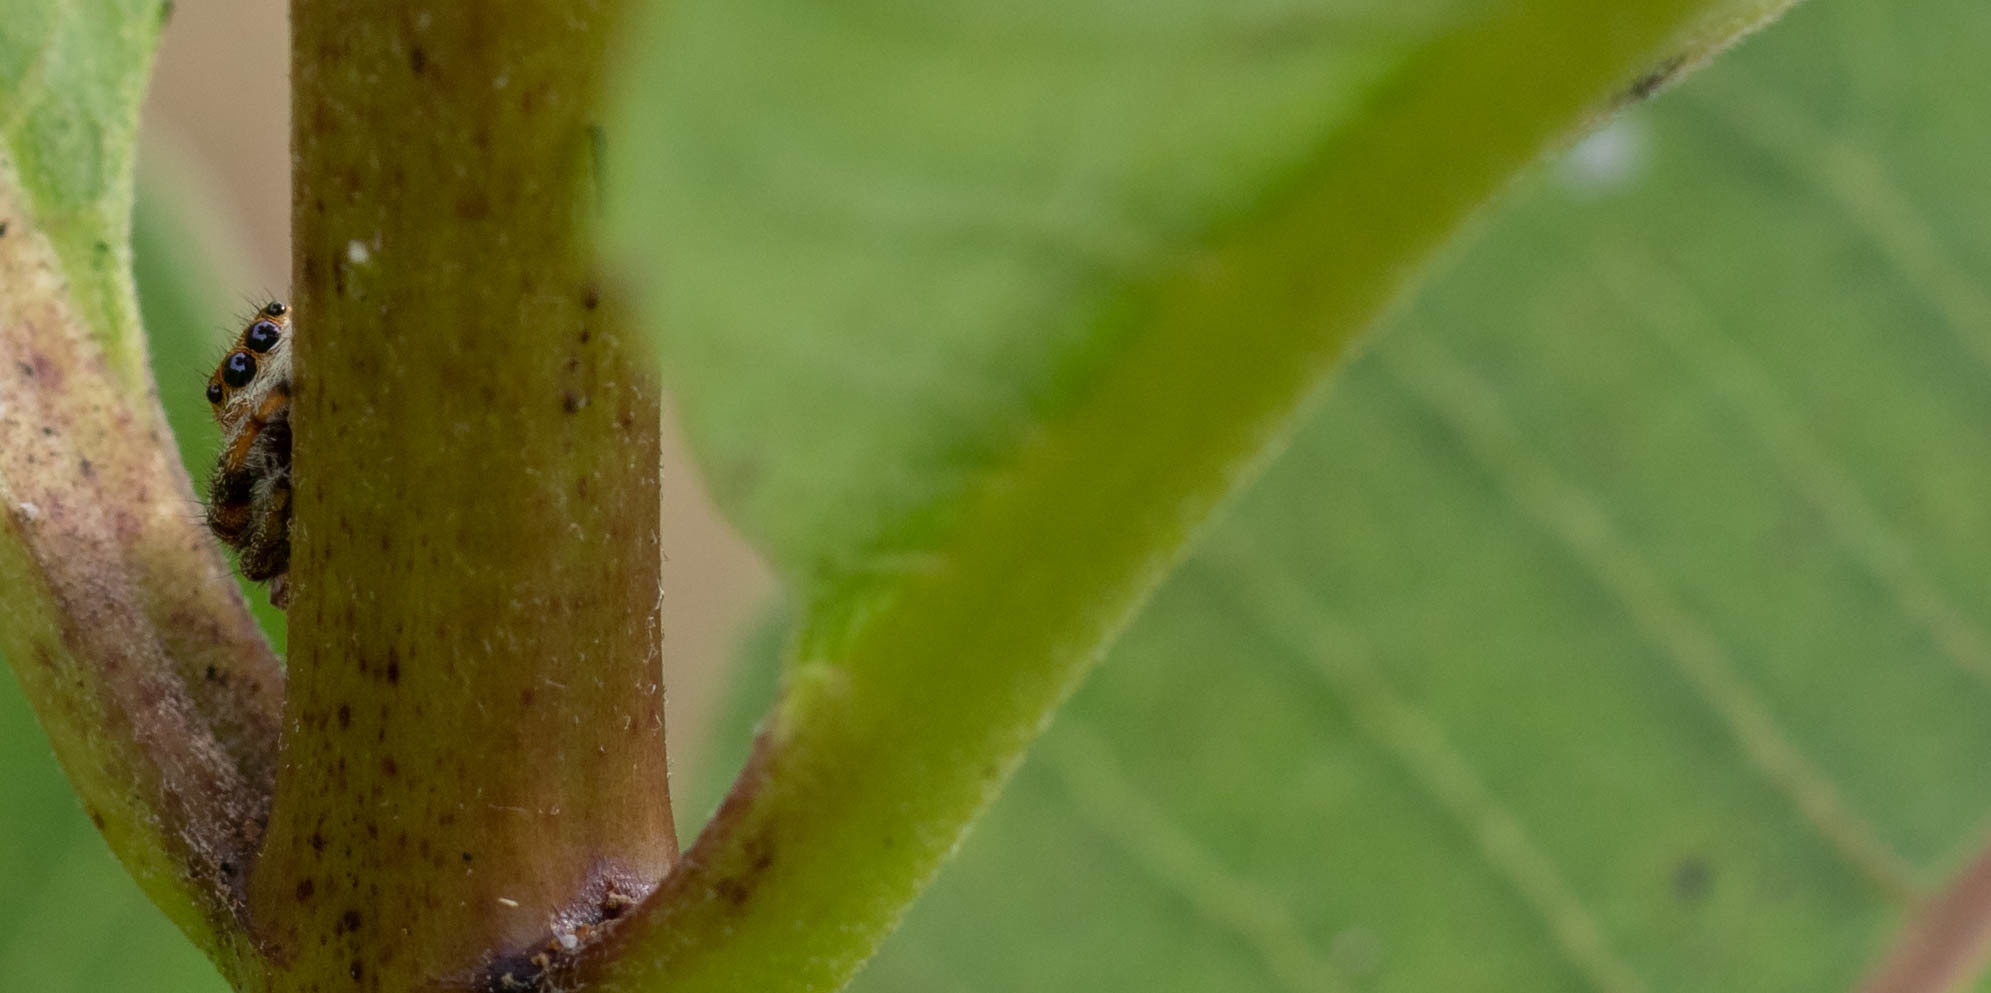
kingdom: Animalia
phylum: Arthropoda
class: Arachnida
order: Araneae
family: Salticidae
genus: Paraphidippus
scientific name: Paraphidippus aurantius
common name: Jumping spiders
